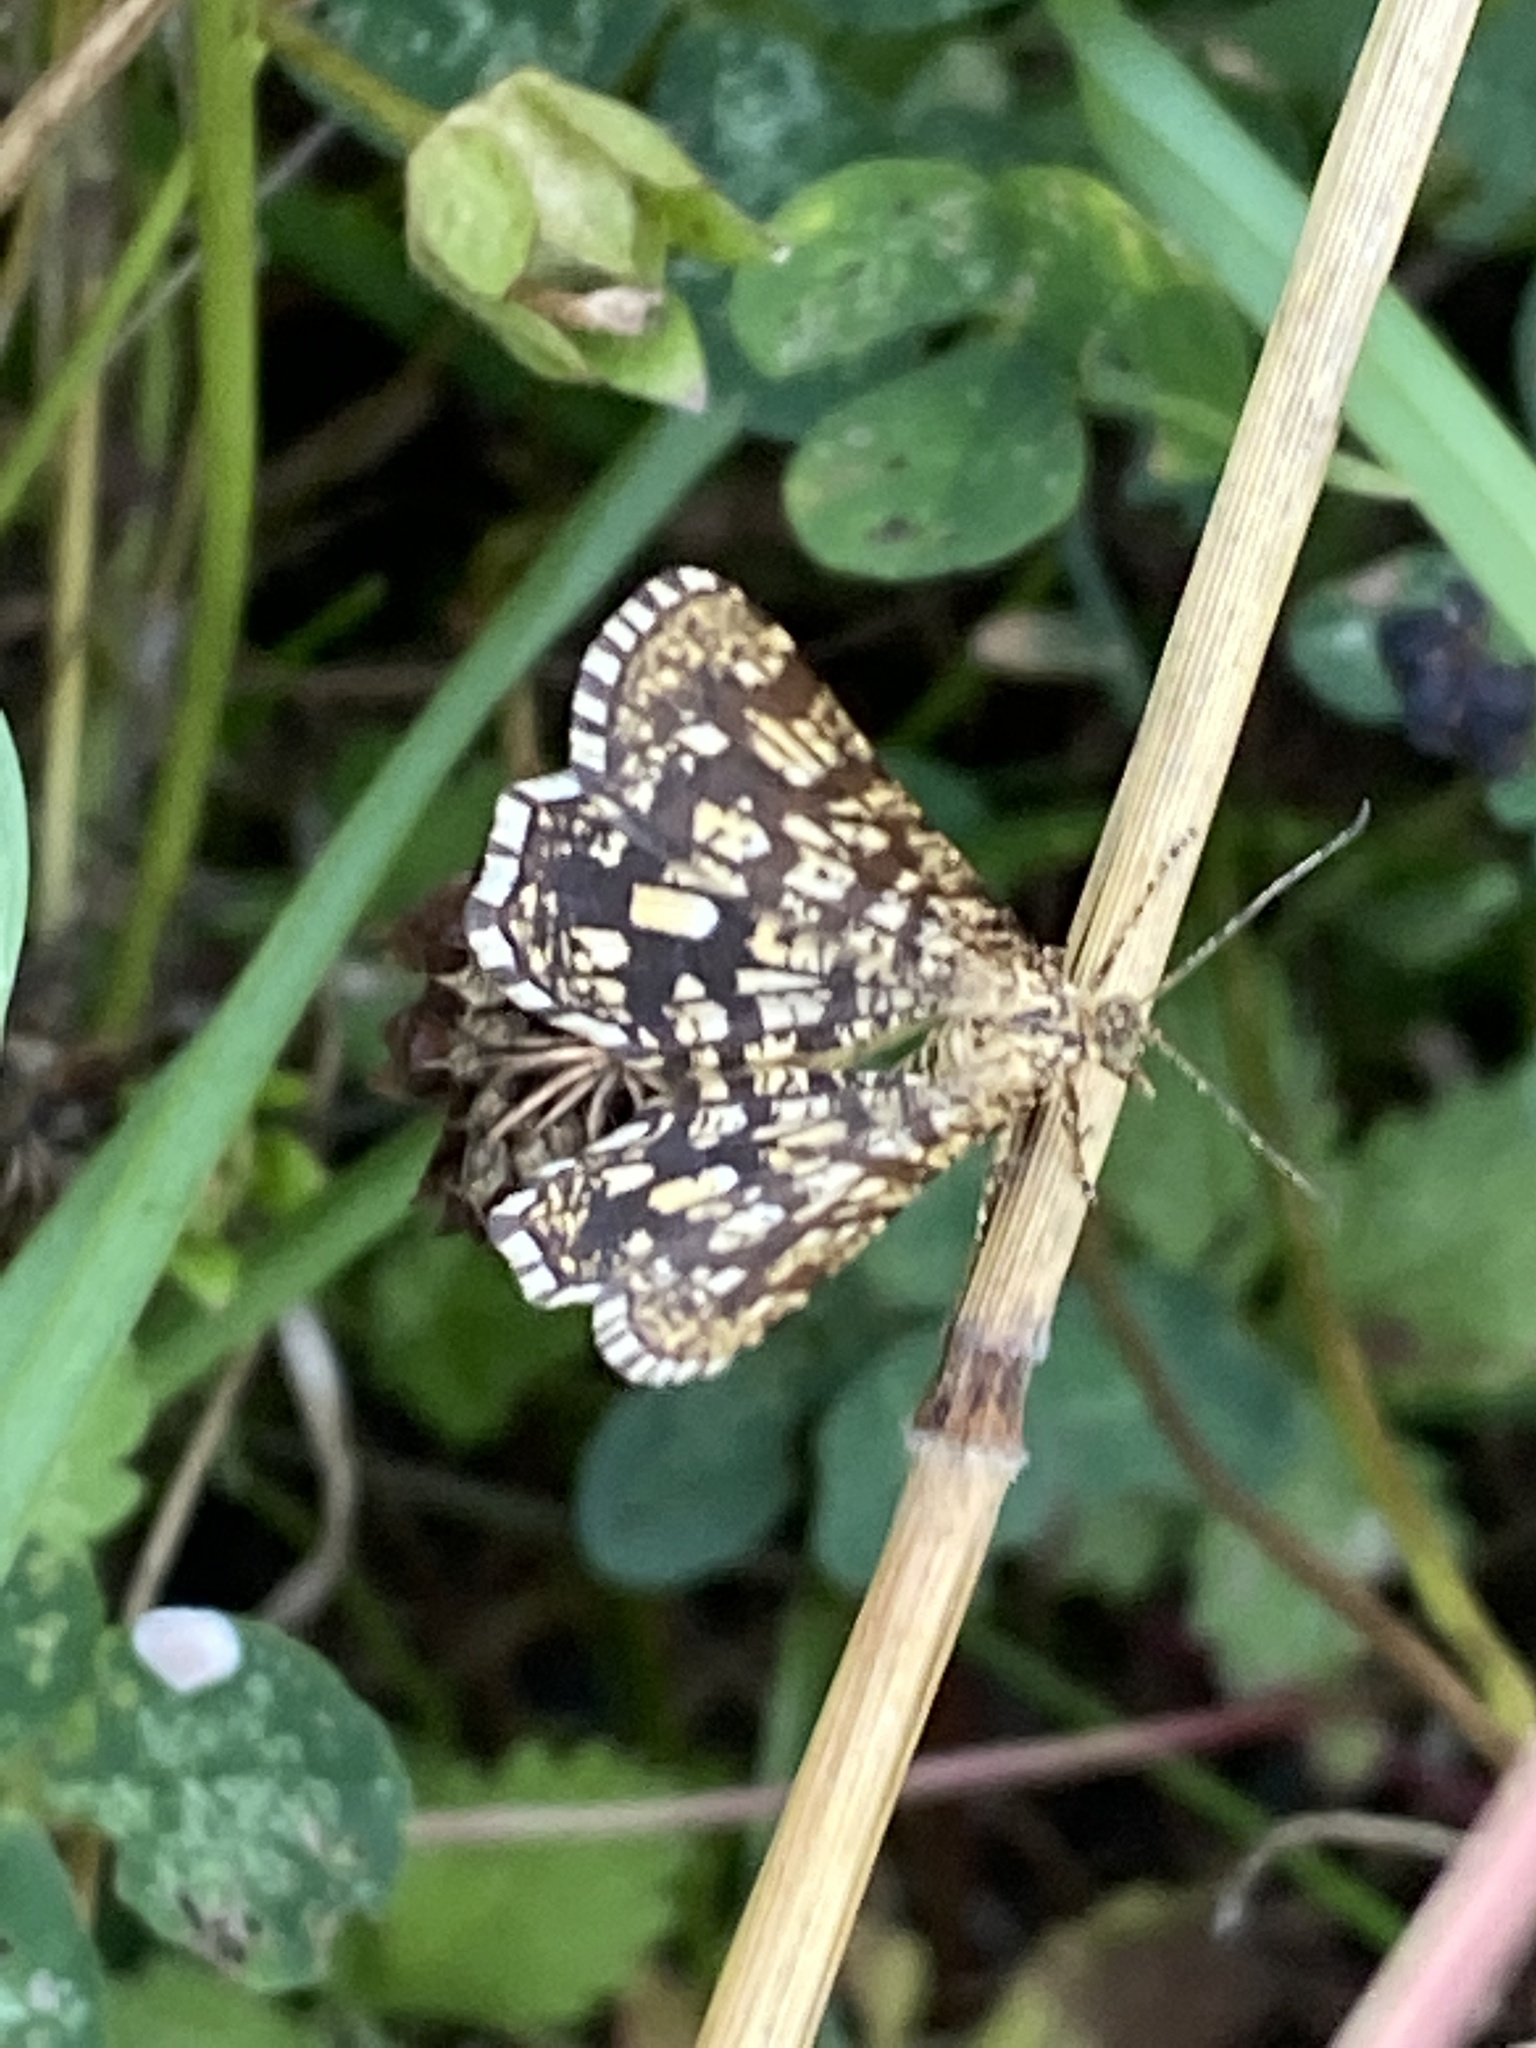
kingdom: Animalia
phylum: Arthropoda
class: Insecta
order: Lepidoptera
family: Geometridae
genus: Chiasmia
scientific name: Chiasmia clathrata
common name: Latticed heath
